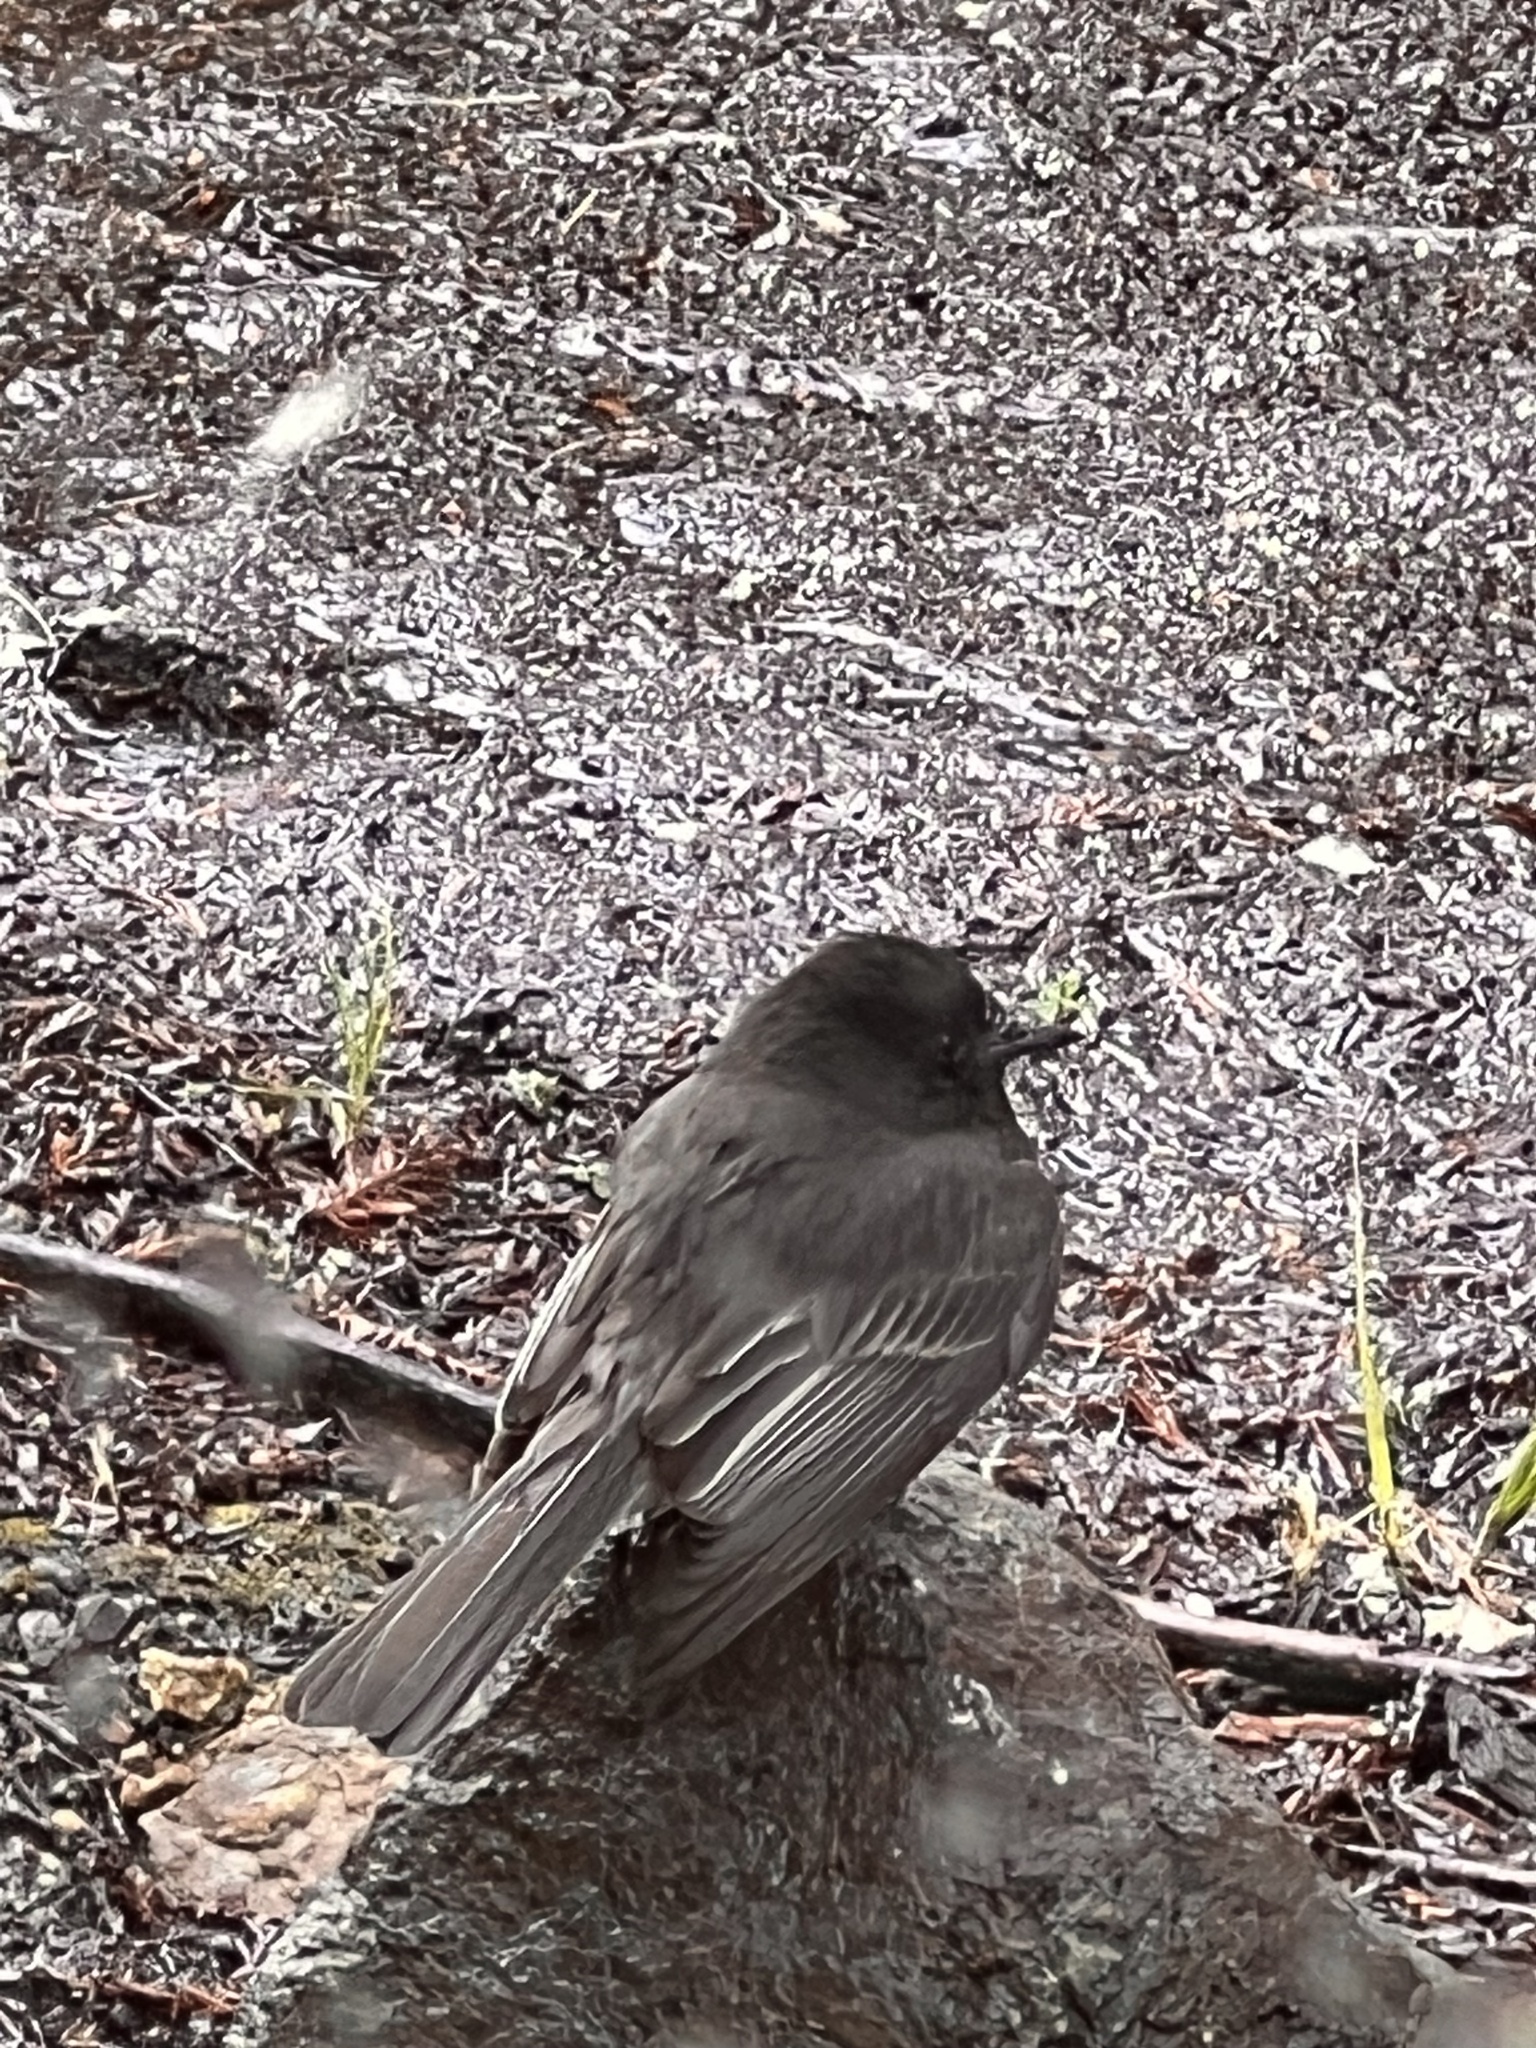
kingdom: Animalia
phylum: Chordata
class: Aves
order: Passeriformes
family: Tyrannidae
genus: Sayornis
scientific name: Sayornis nigricans
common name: Black phoebe
